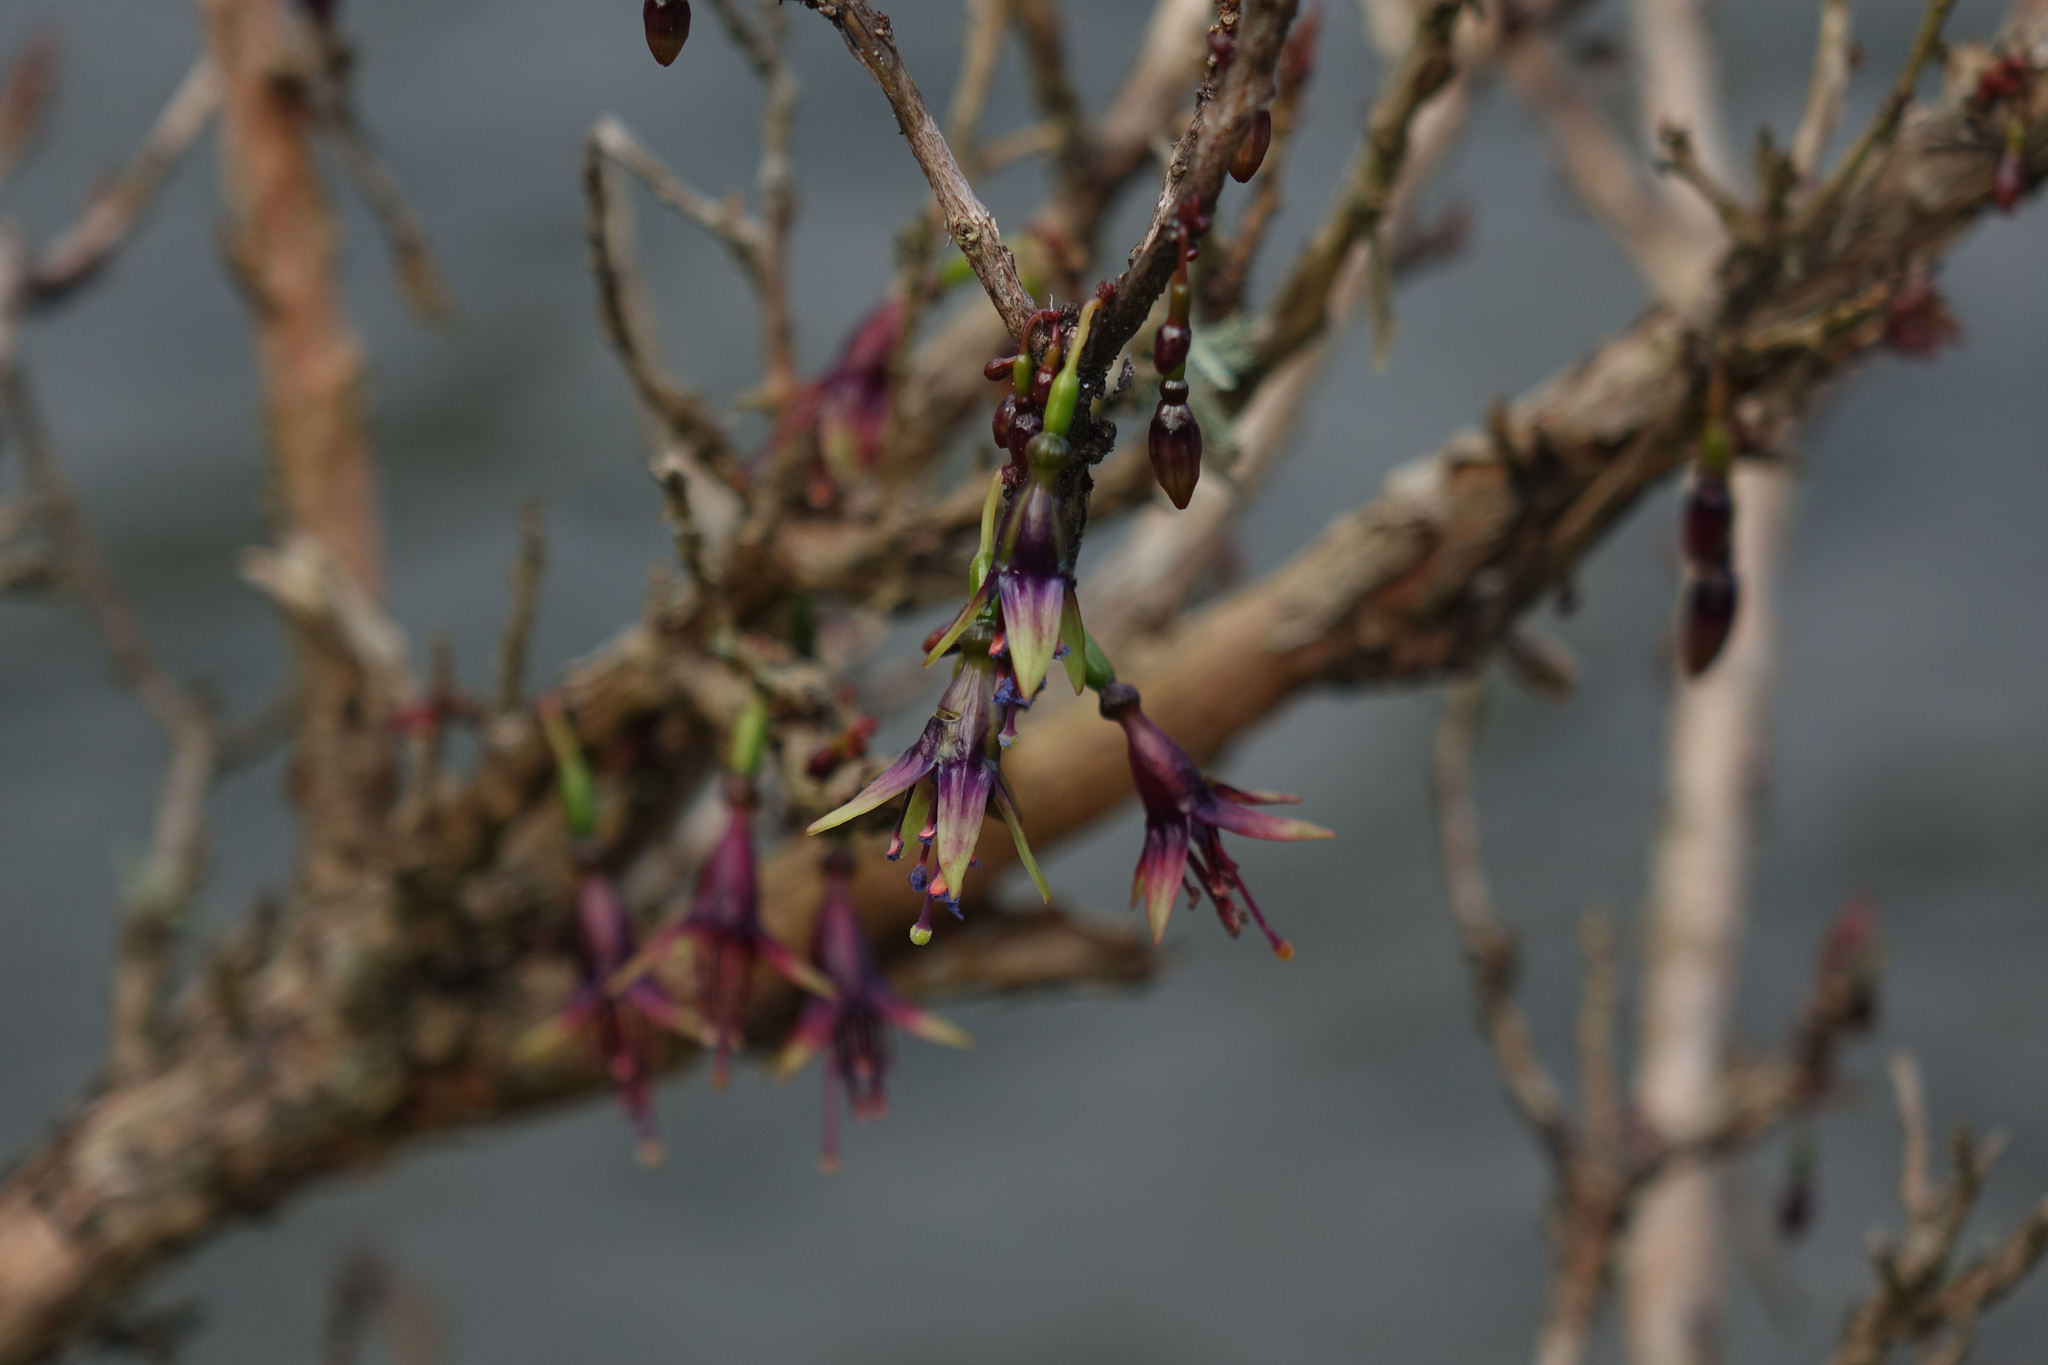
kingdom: Plantae
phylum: Tracheophyta
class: Magnoliopsida
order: Myrtales
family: Onagraceae
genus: Fuchsia
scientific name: Fuchsia excorticata
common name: Tree fuchsia
